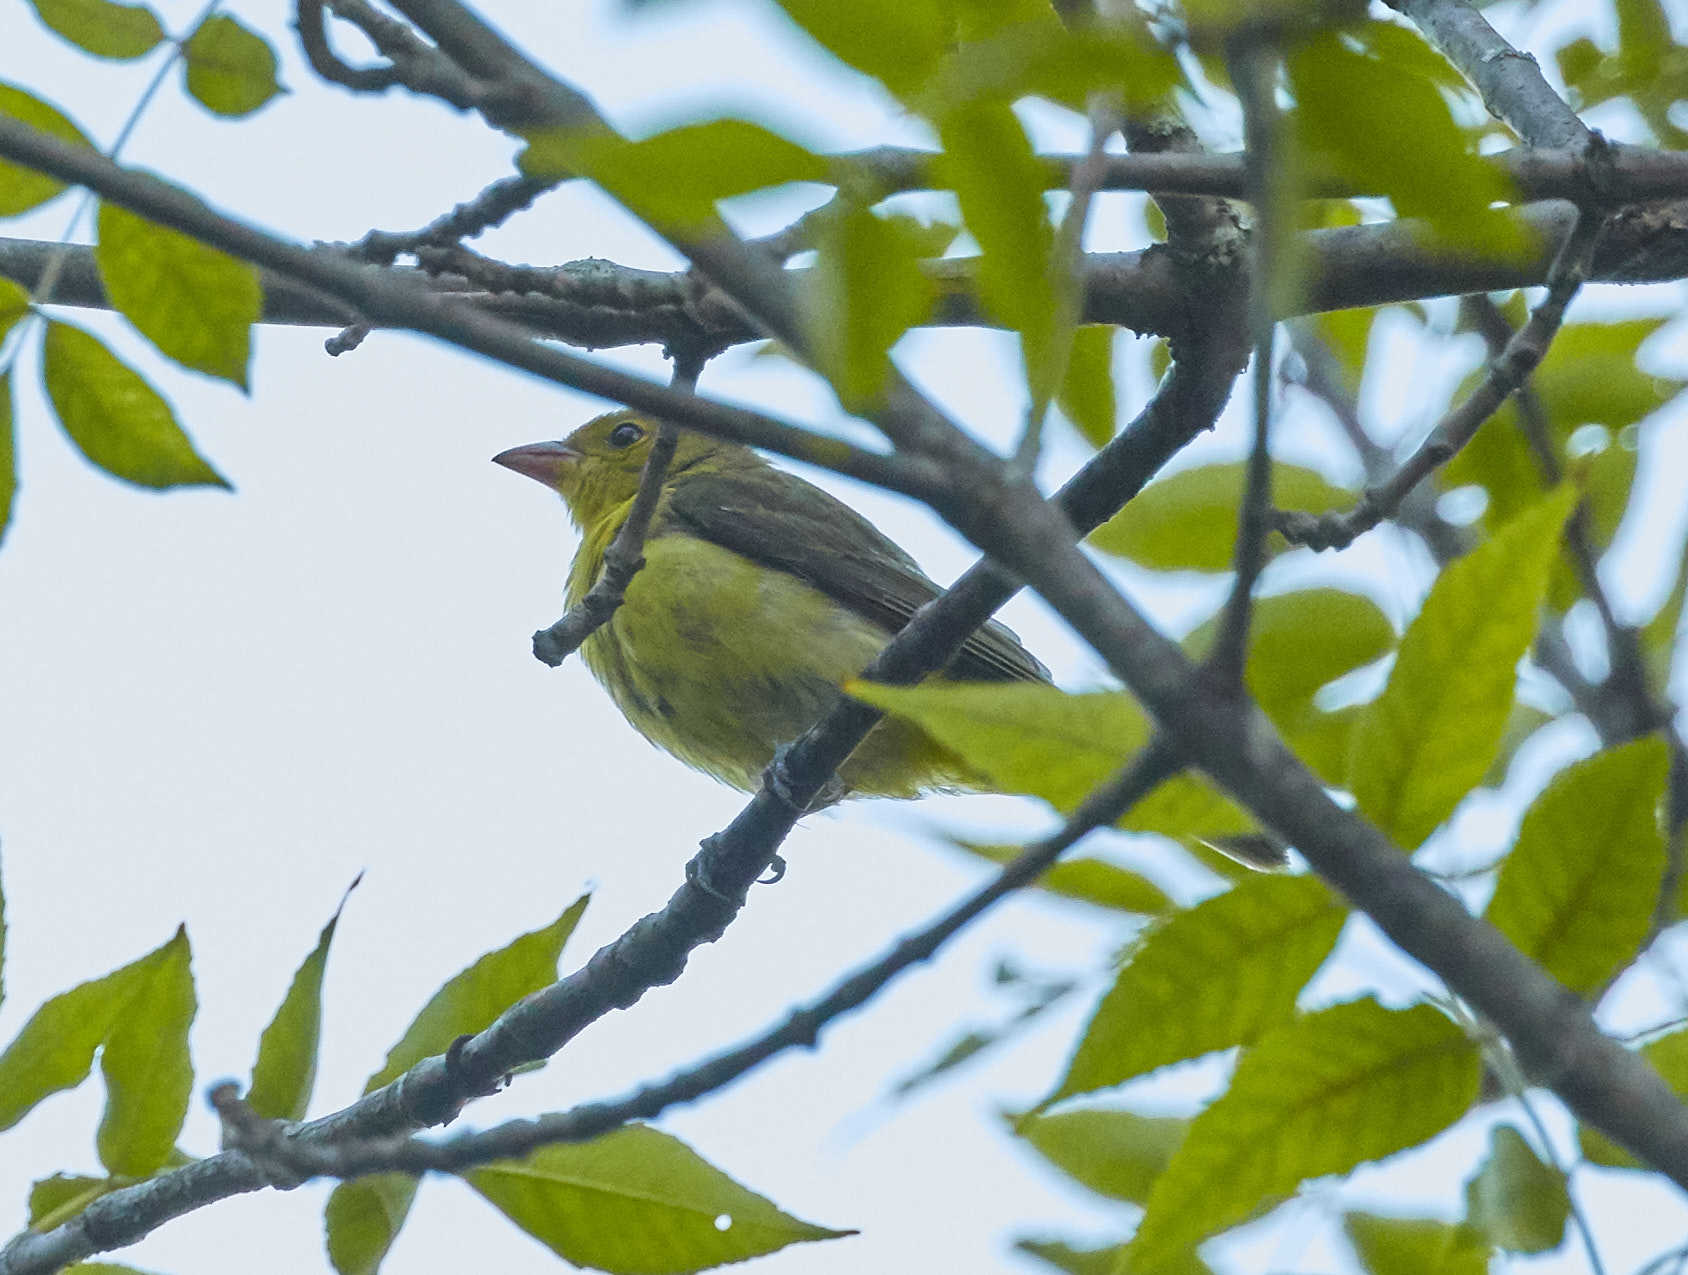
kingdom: Animalia
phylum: Chordata
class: Aves
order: Passeriformes
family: Cardinalidae
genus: Piranga
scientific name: Piranga olivacea
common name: Scarlet tanager
